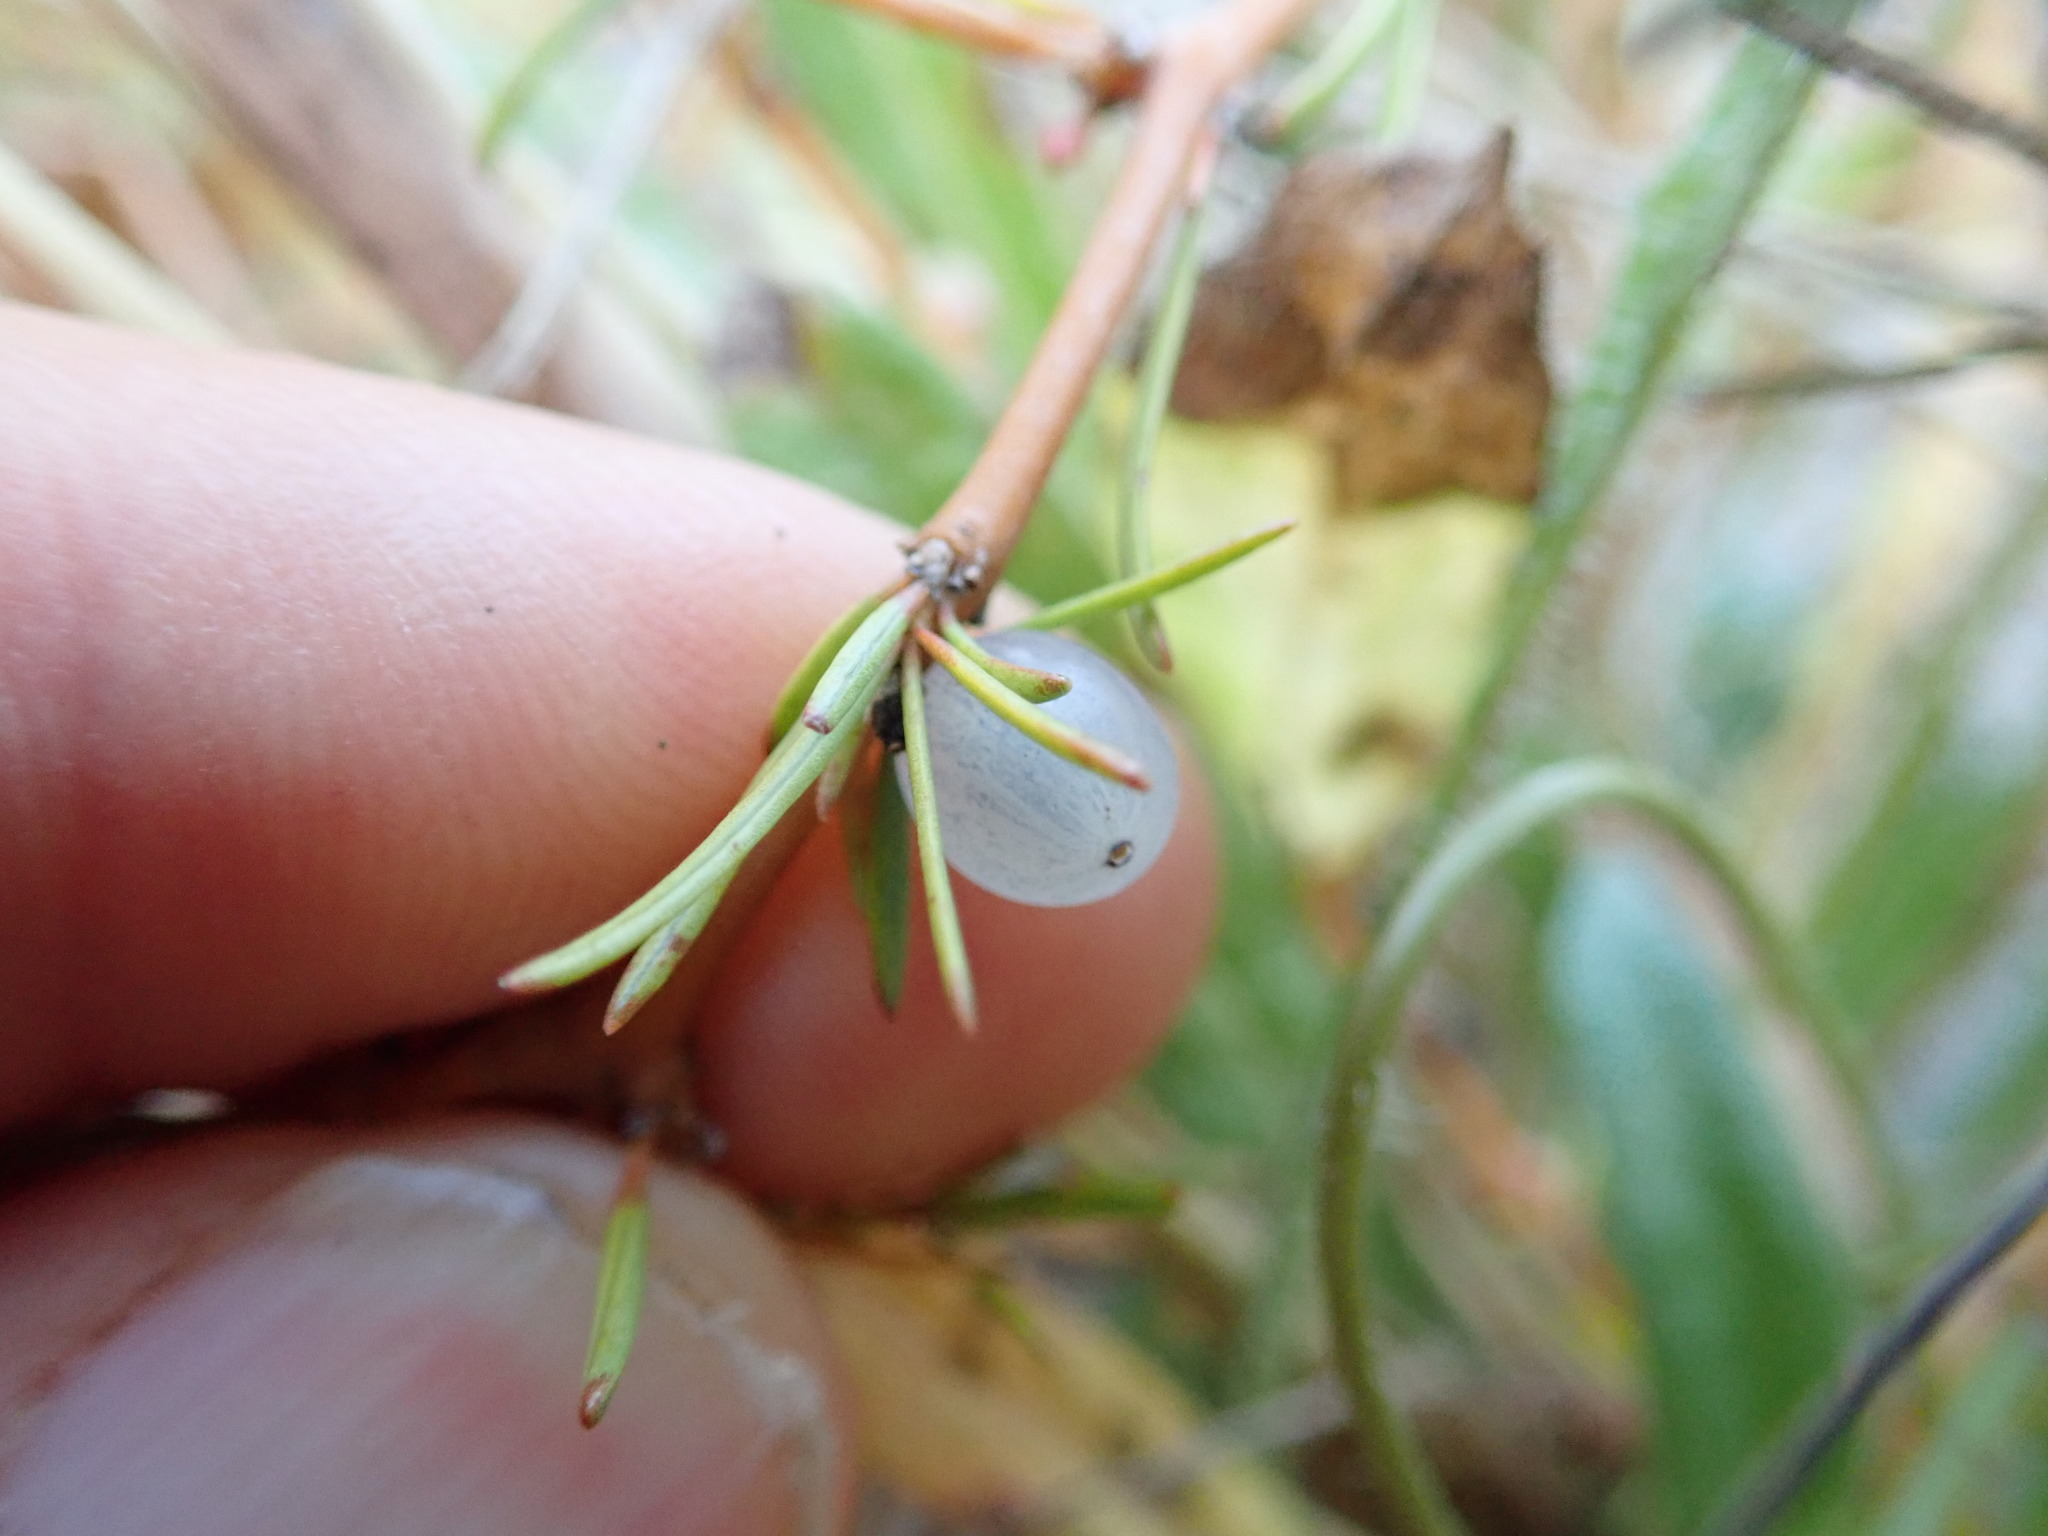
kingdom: Plantae
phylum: Tracheophyta
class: Magnoliopsida
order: Gentianales
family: Rubiaceae
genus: Coprosma
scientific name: Coprosma acerosa
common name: Sand coprosma
